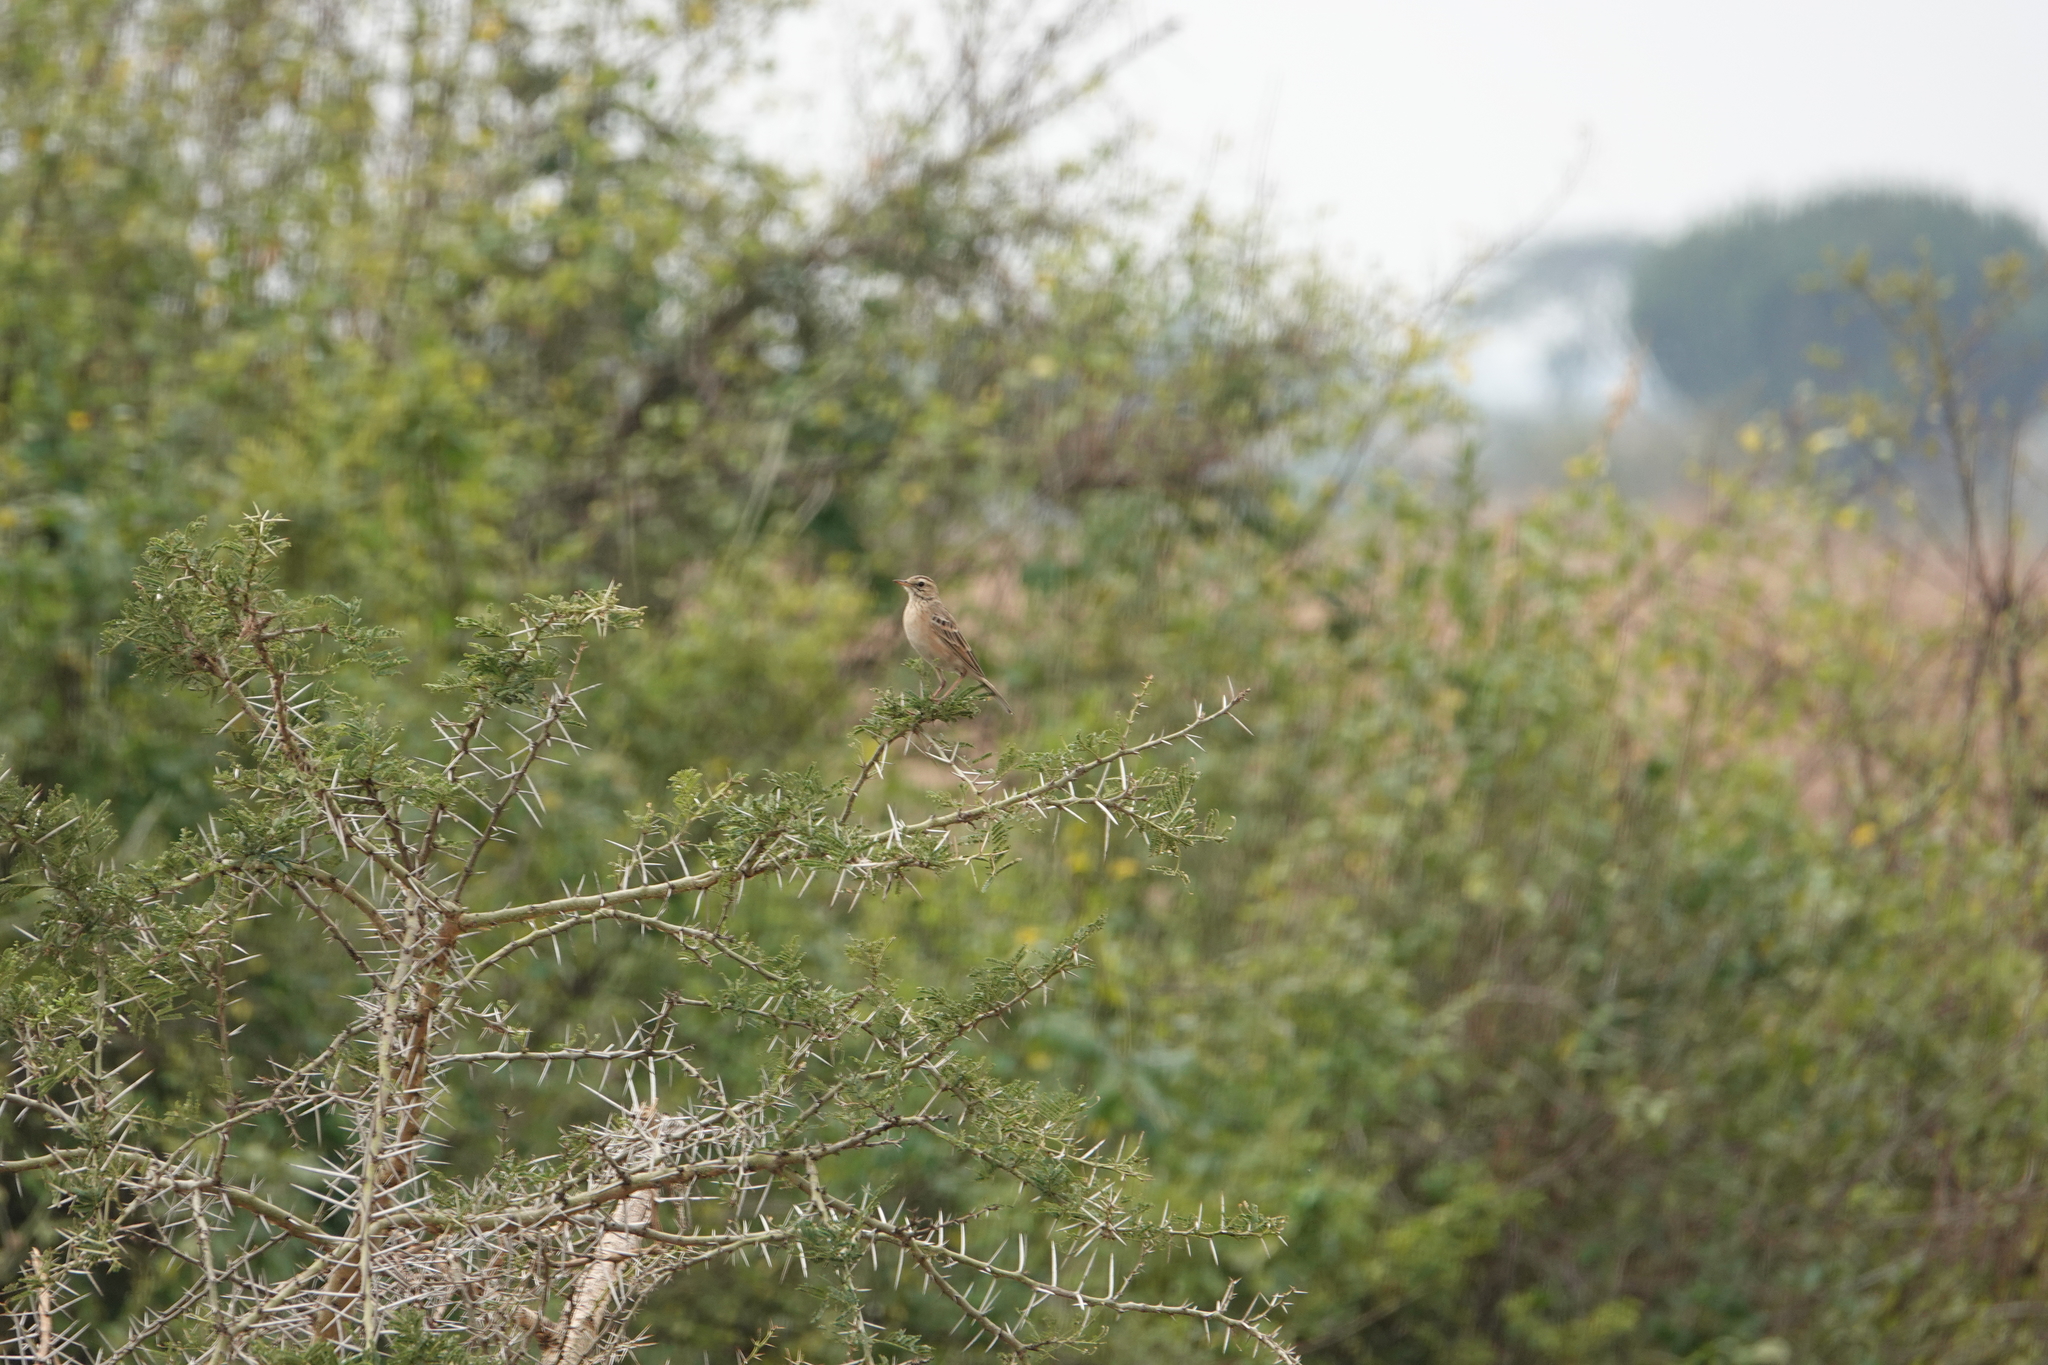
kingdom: Animalia
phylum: Chordata
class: Aves
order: Passeriformes
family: Motacillidae
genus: Anthus
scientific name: Anthus cinnamomeus
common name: African pipit
